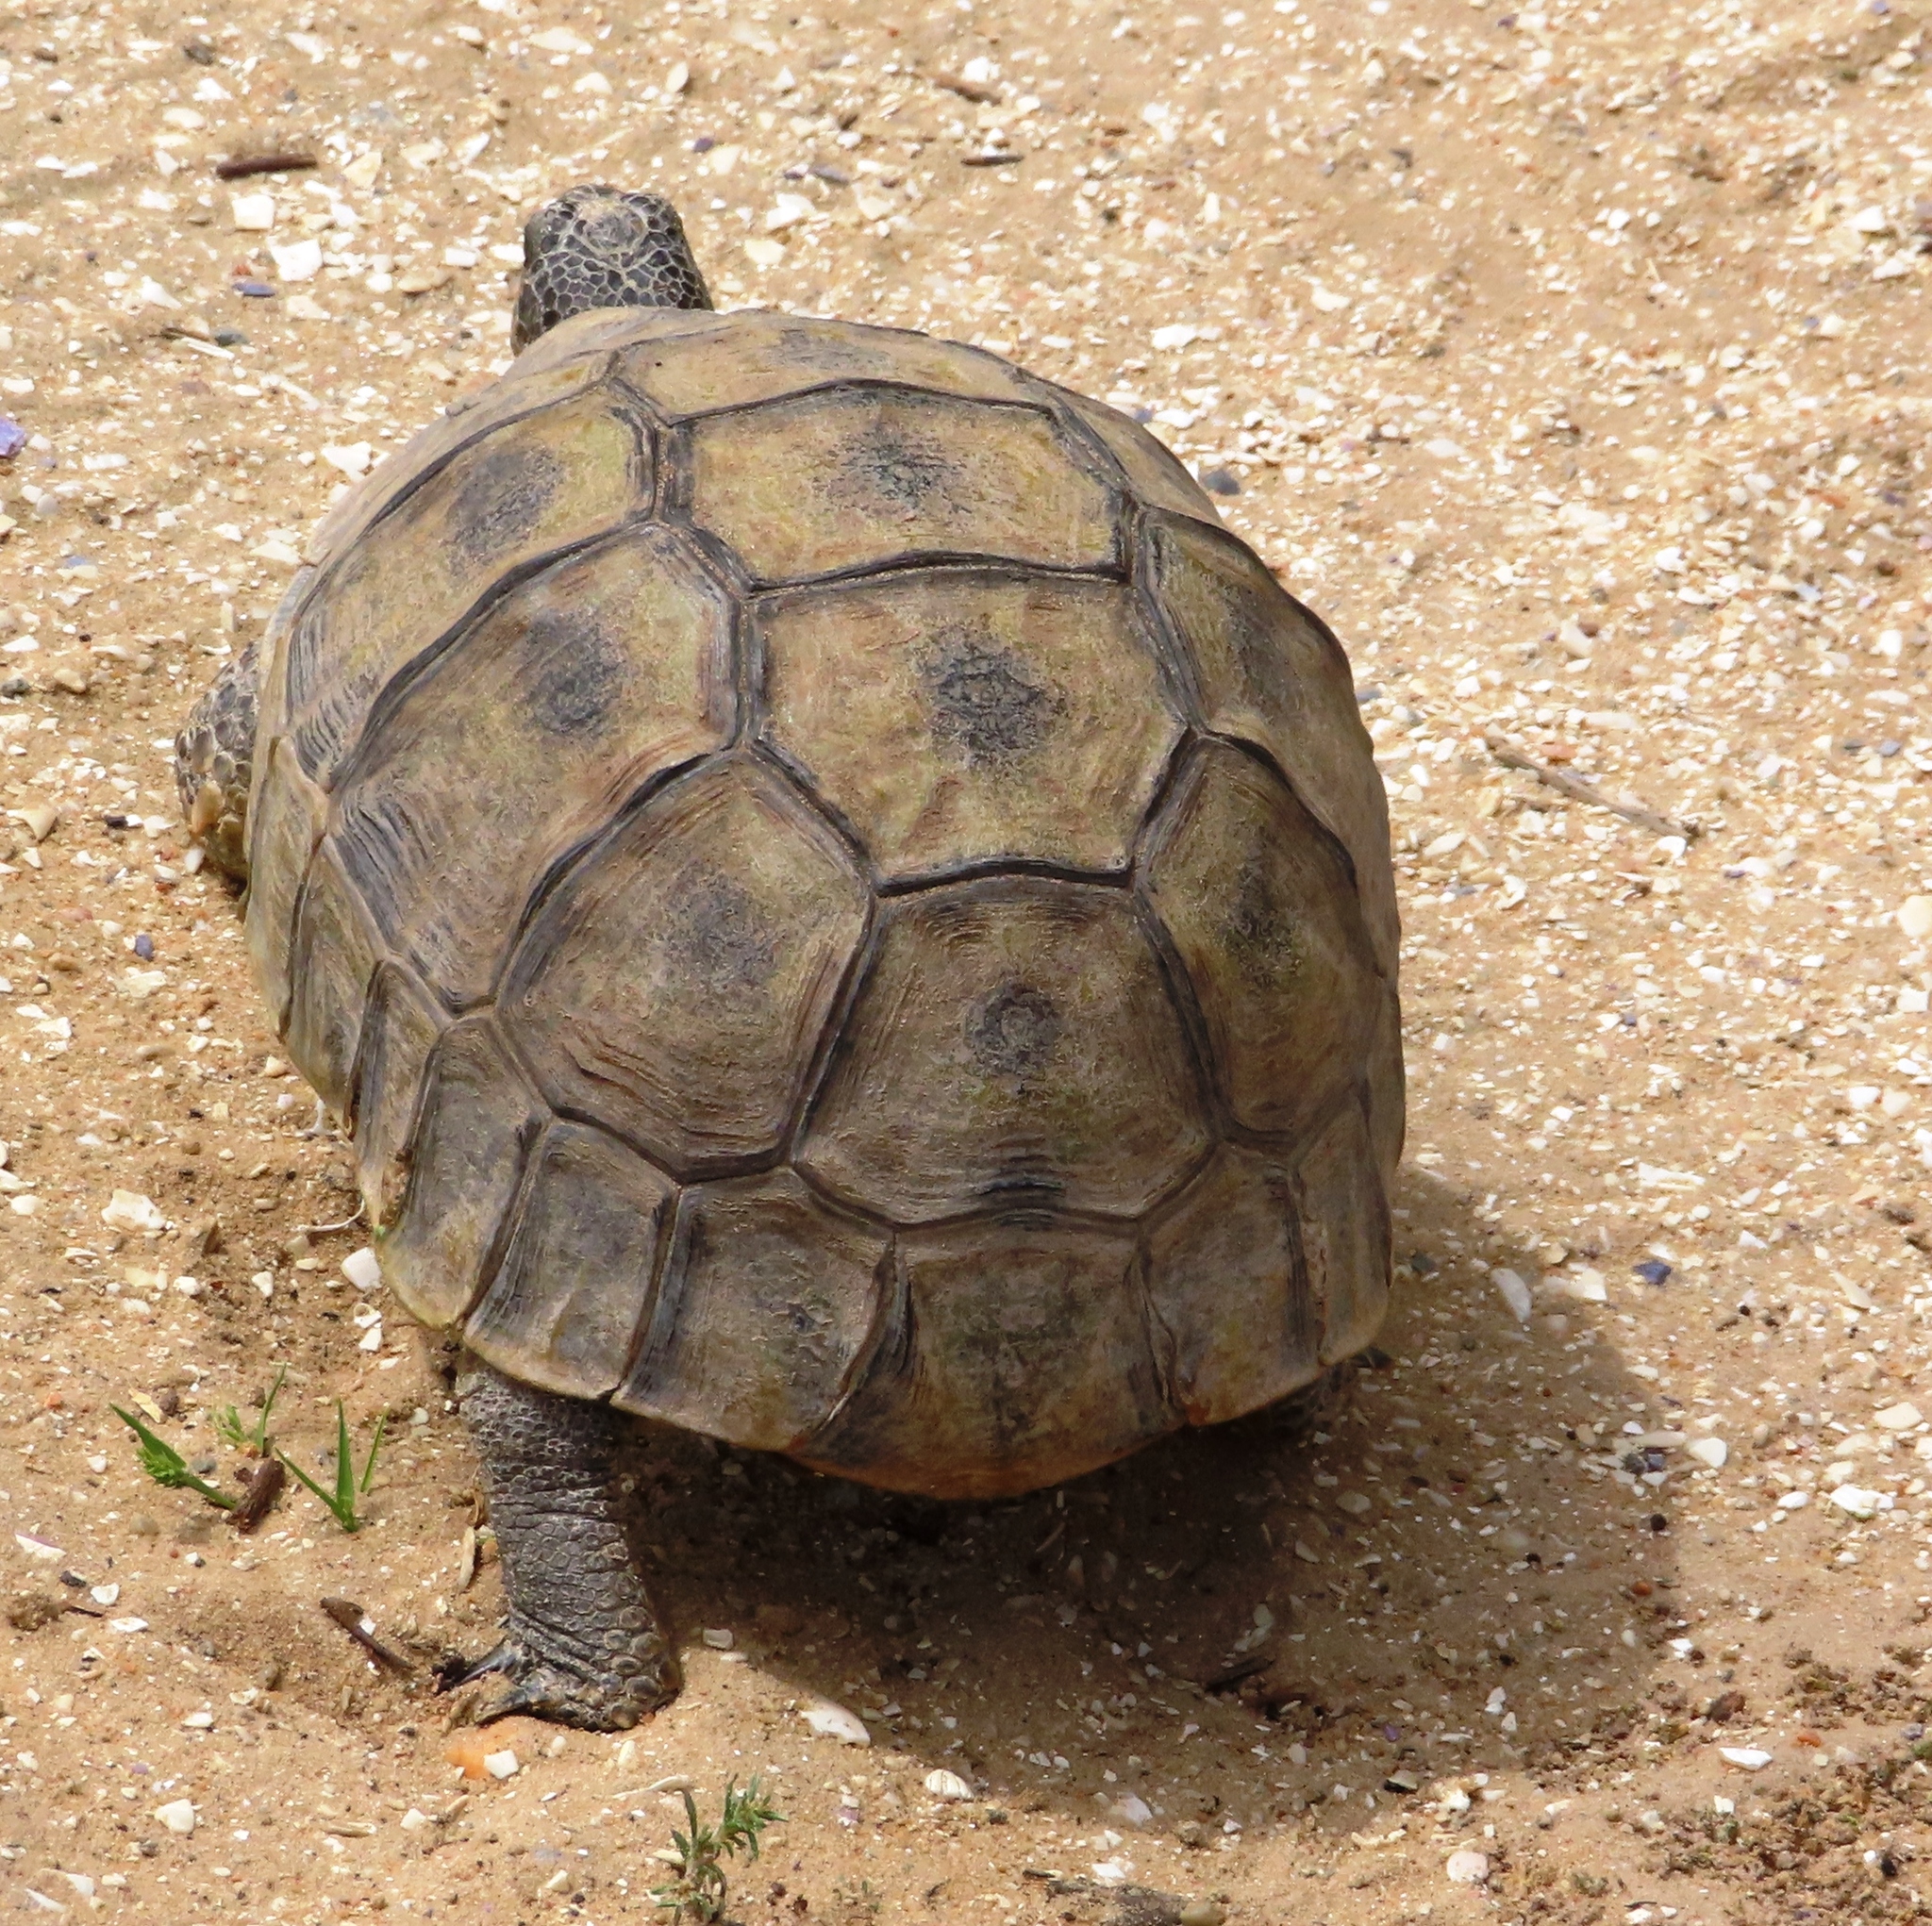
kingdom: Animalia
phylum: Chordata
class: Testudines
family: Testudinidae
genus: Chersina
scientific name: Chersina angulata
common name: South african bowsprit tortoise
